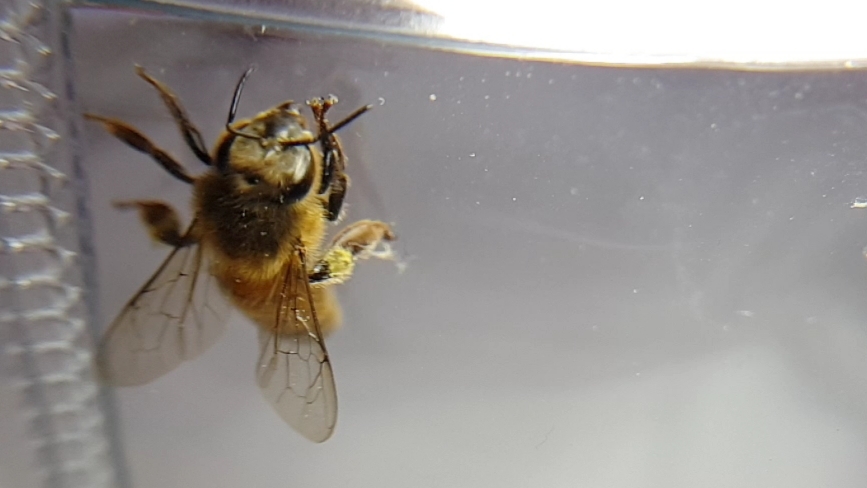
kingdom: Animalia
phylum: Arthropoda
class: Insecta
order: Hymenoptera
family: Apidae
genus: Apis
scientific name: Apis mellifera
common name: Honey bee
